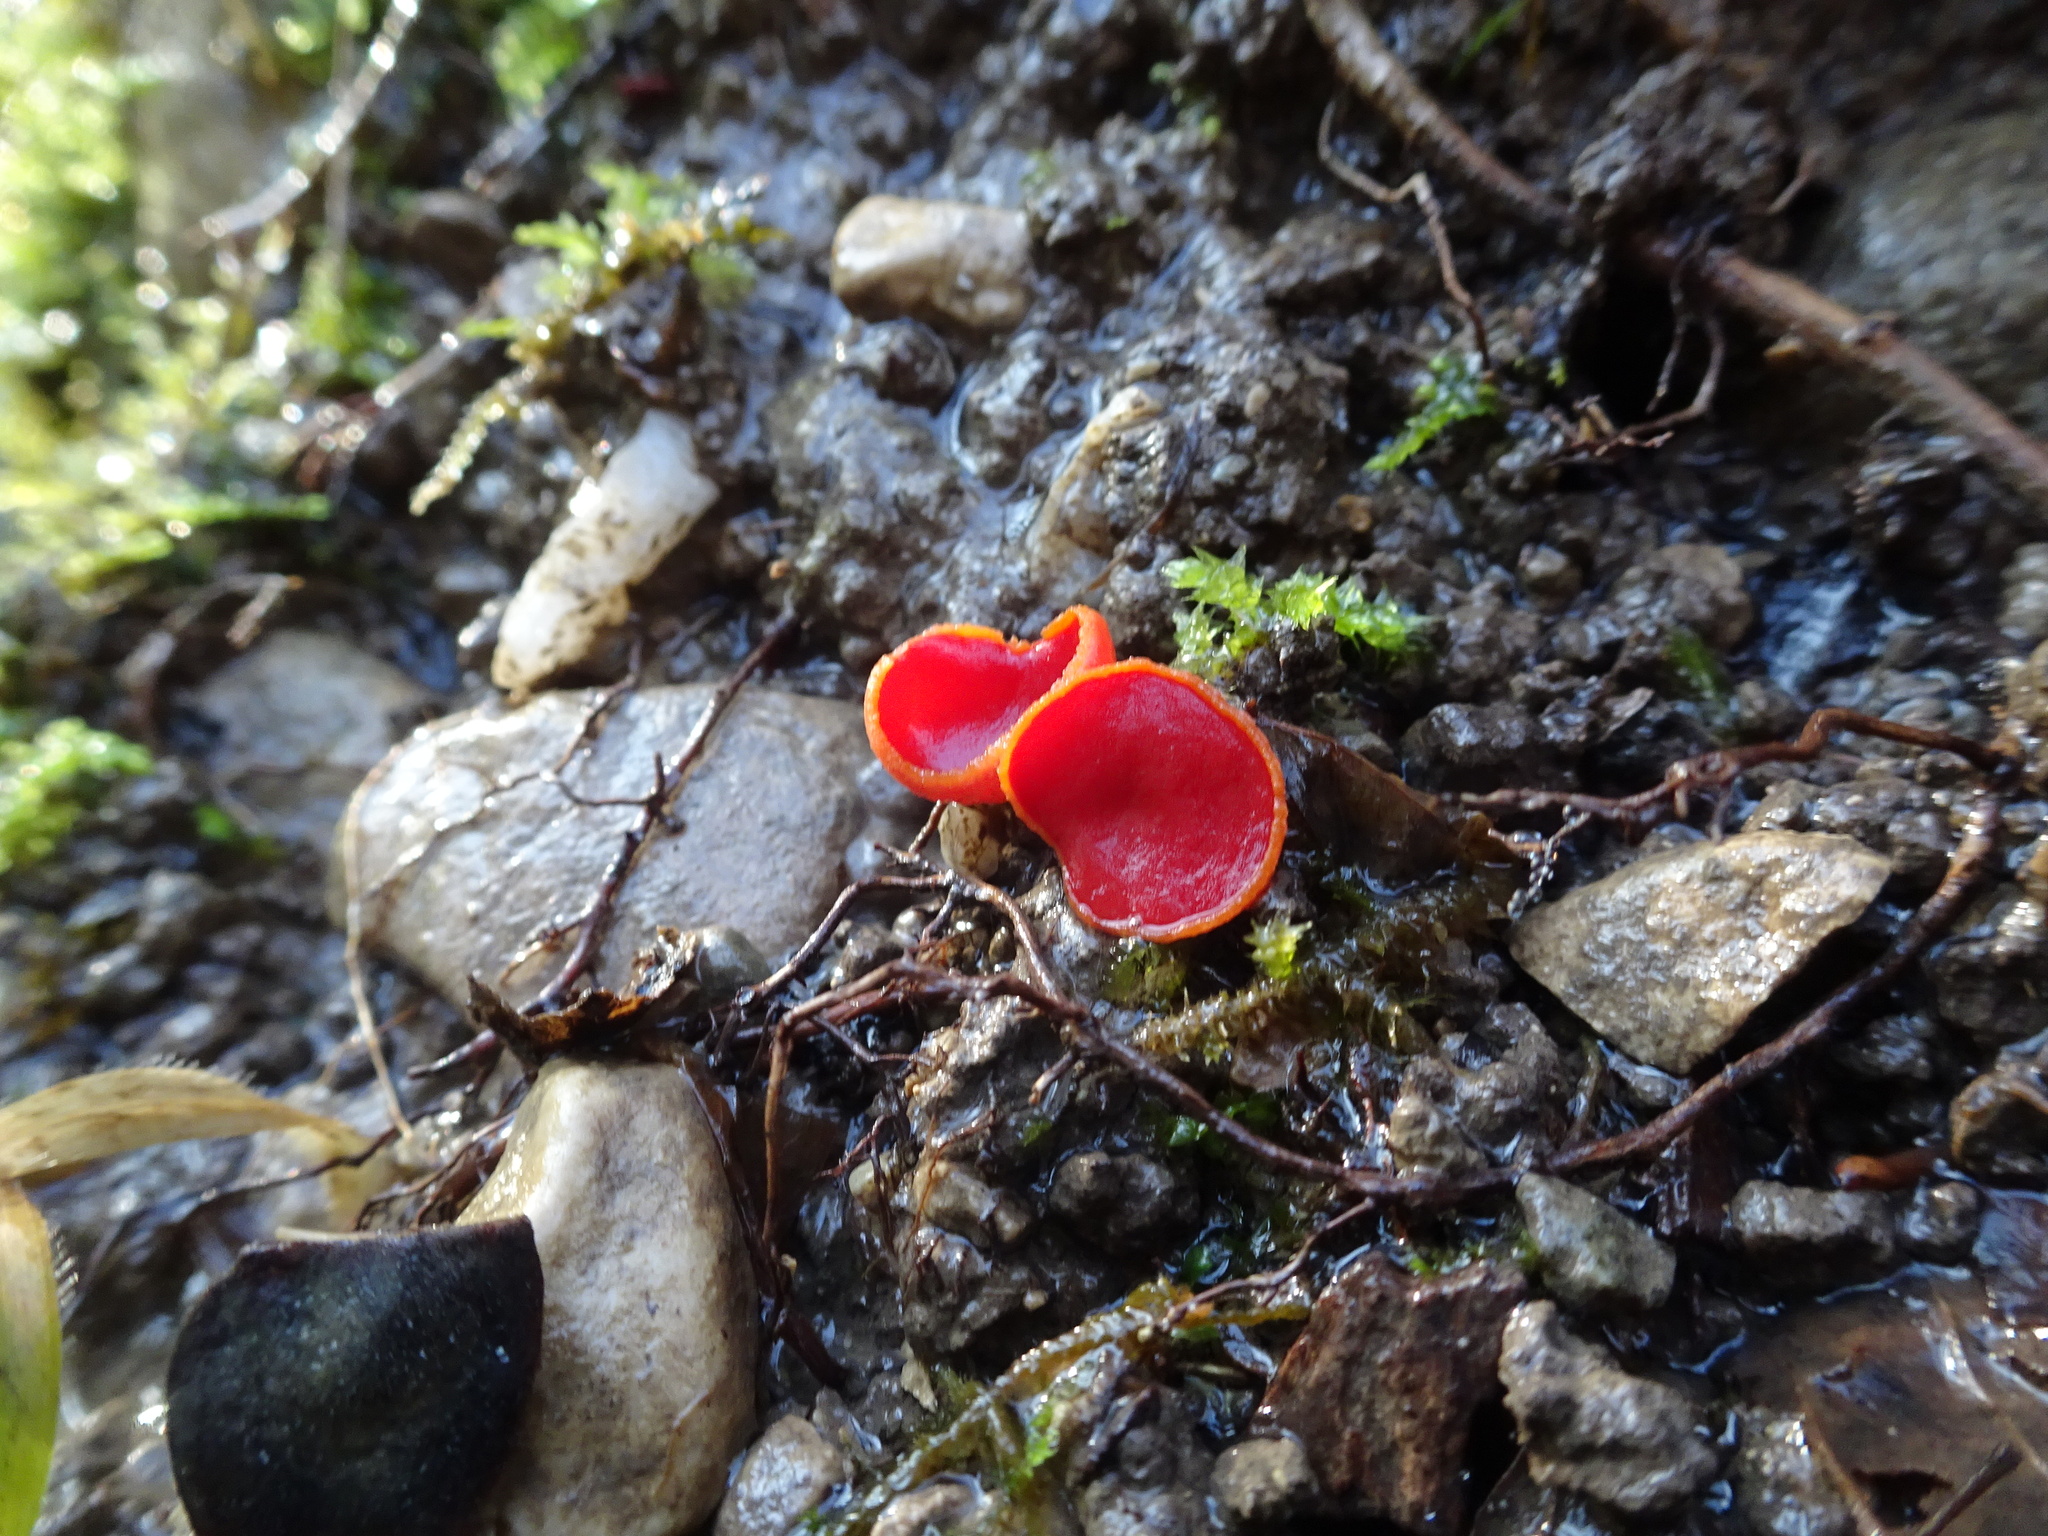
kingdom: Fungi
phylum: Ascomycota
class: Pezizomycetes
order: Pezizales
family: Sarcoscyphaceae
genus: Sarcoscypha
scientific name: Sarcoscypha
